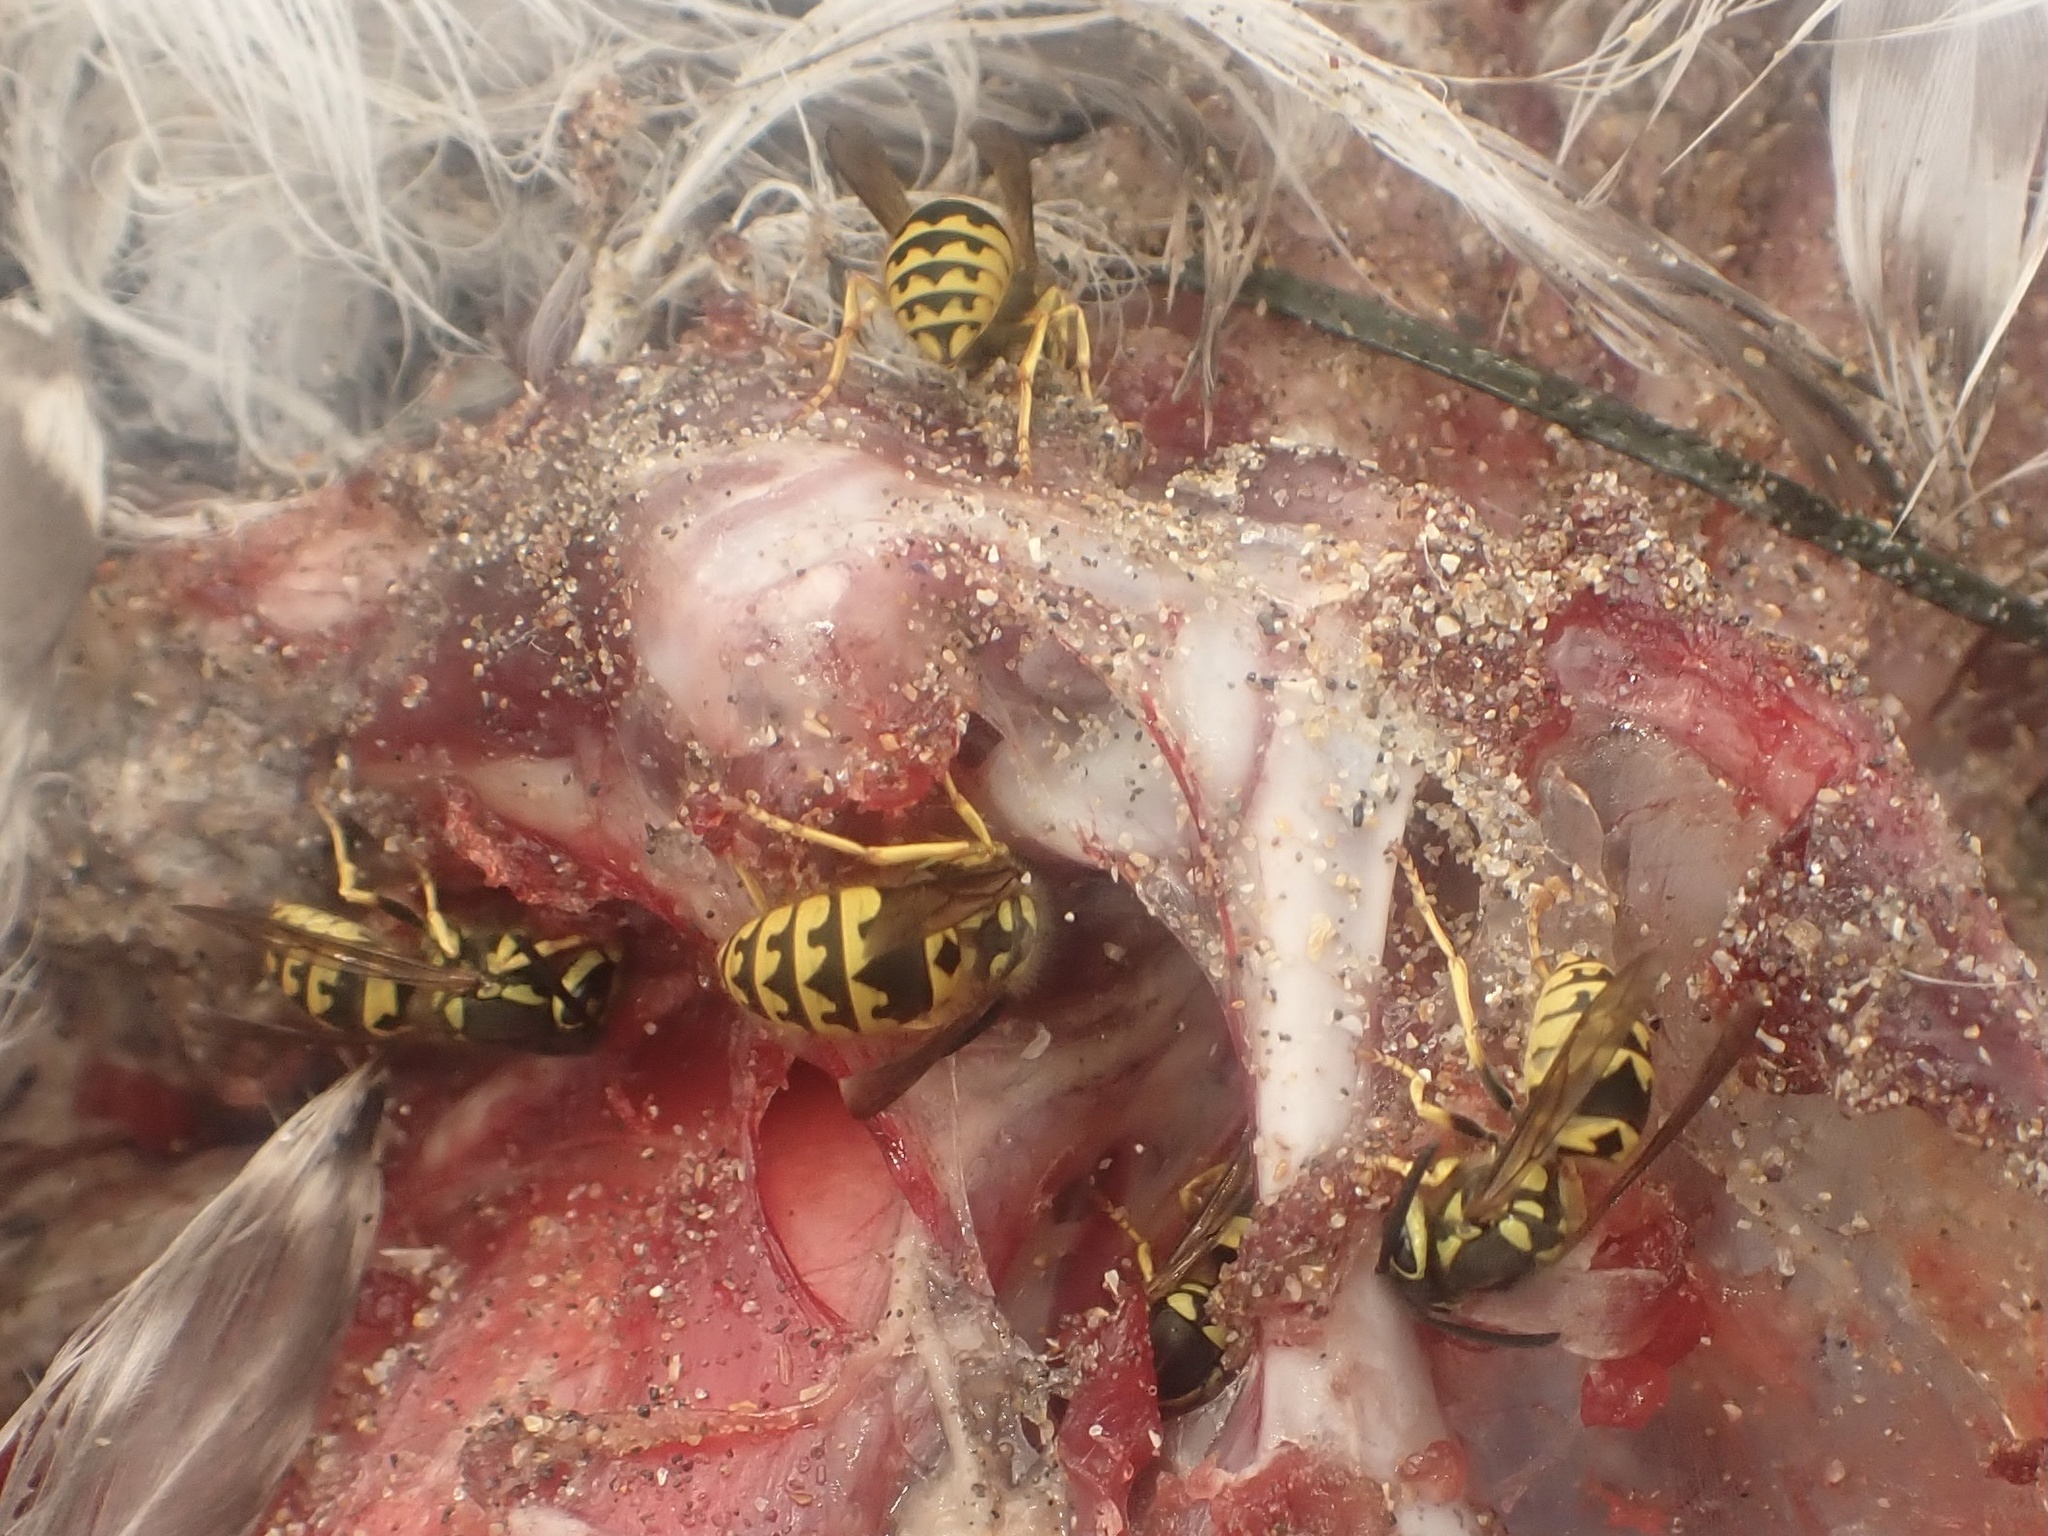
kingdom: Animalia
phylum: Arthropoda
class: Insecta
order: Hymenoptera
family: Vespidae
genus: Vespula
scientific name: Vespula pensylvanica
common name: Western yellowjacket
